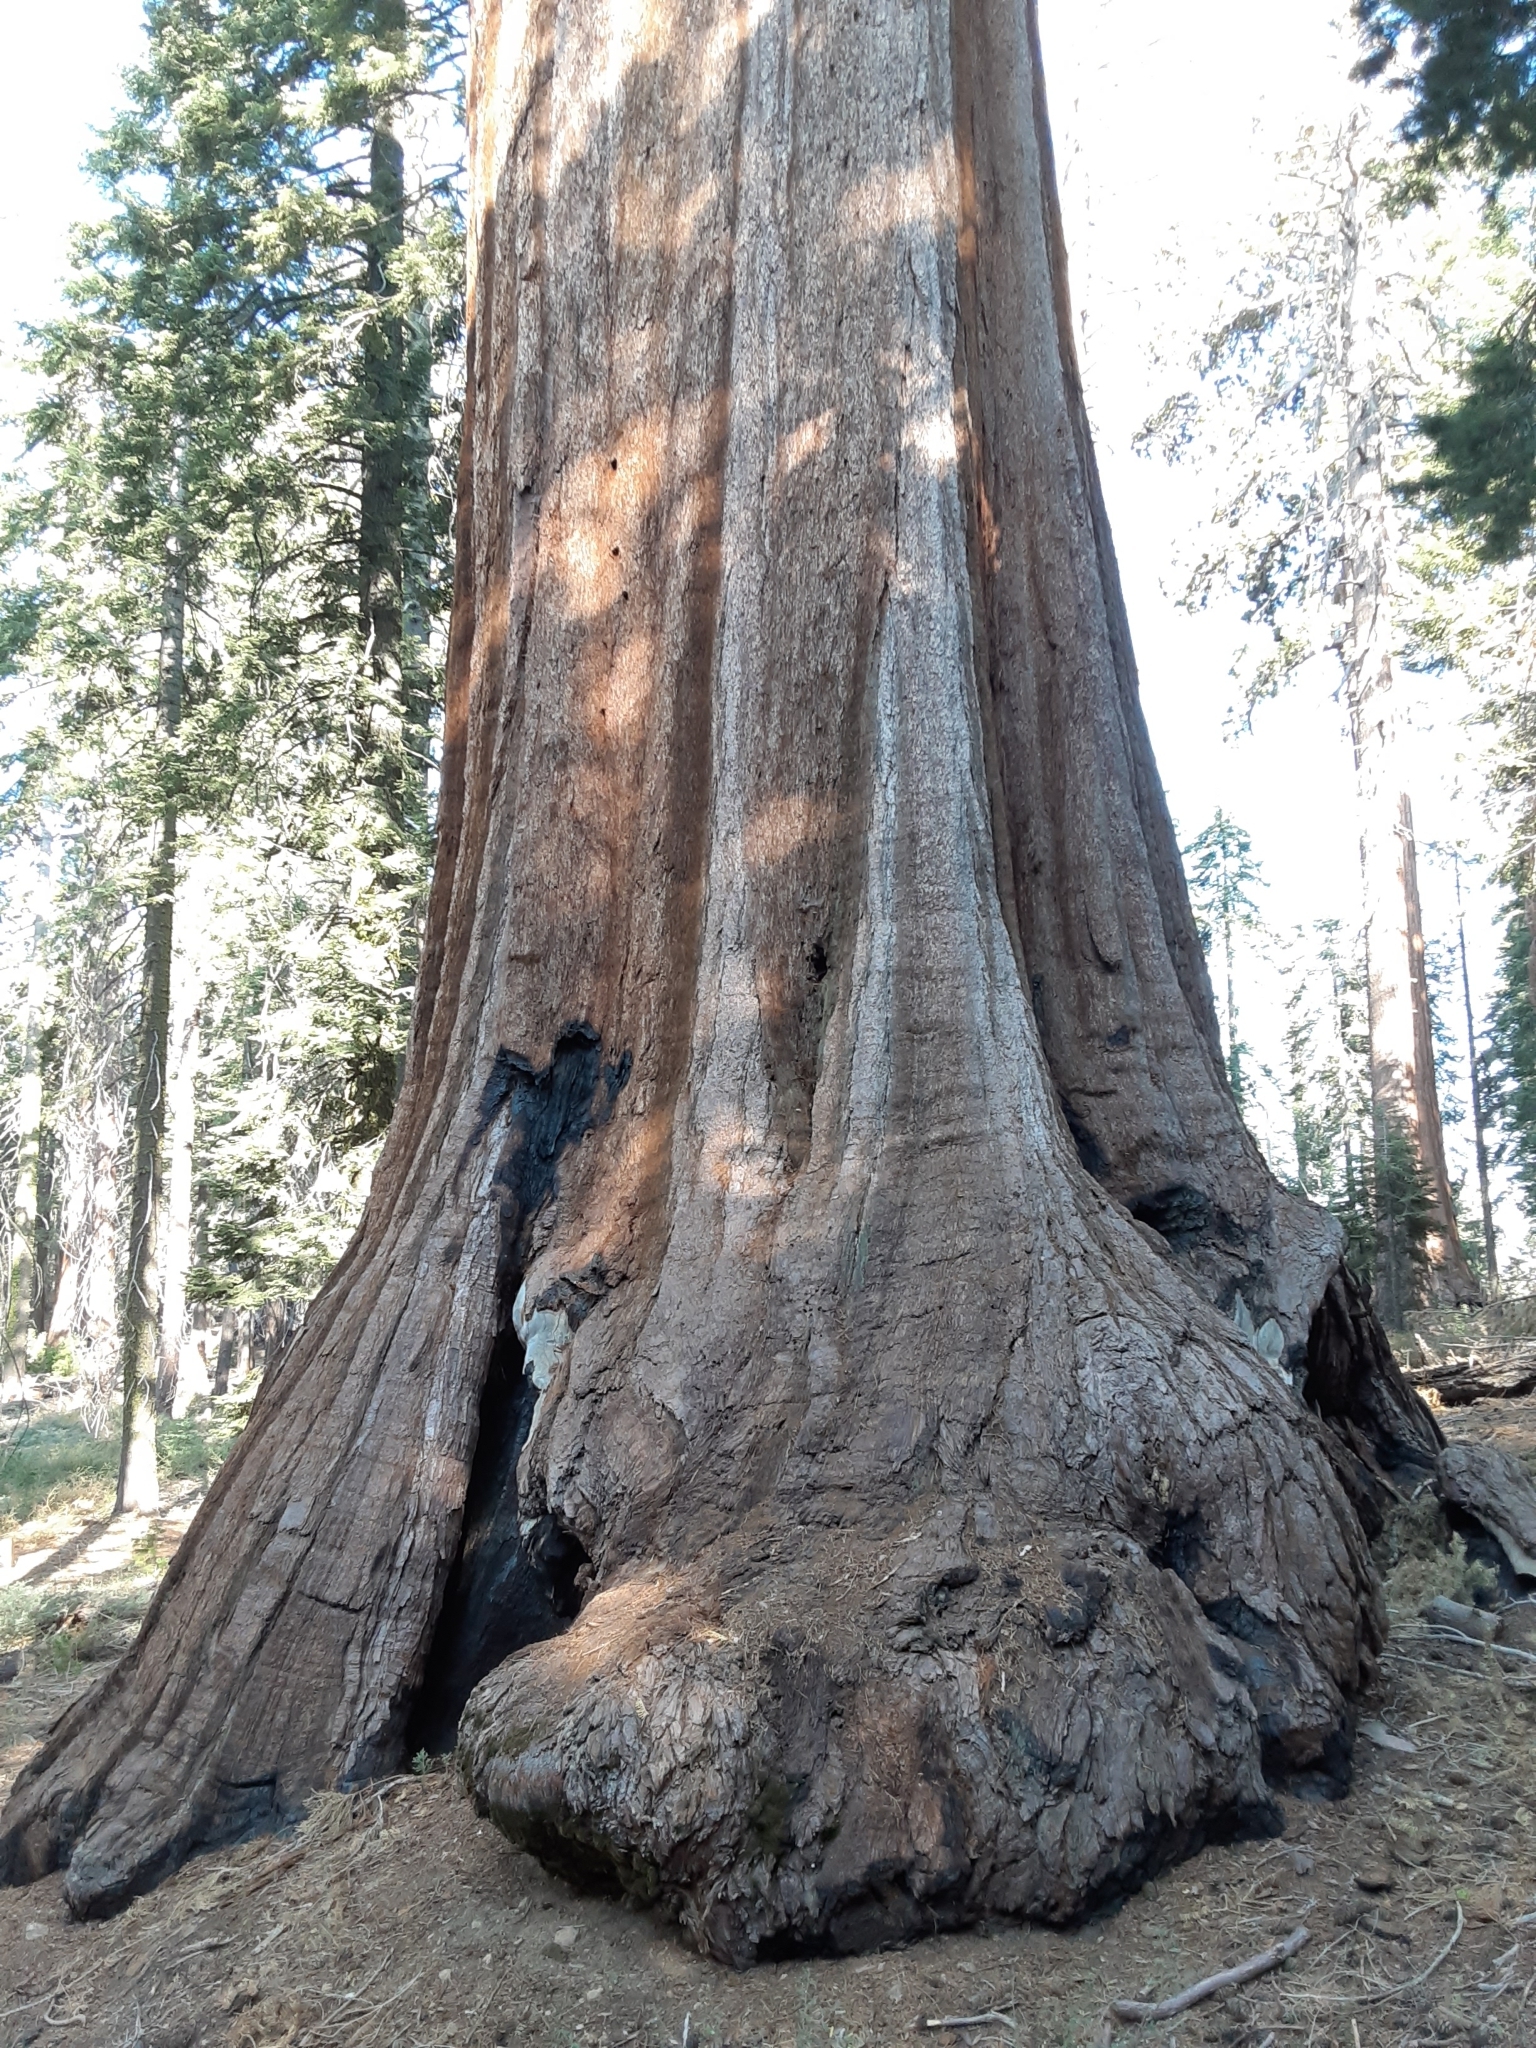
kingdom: Plantae
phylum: Tracheophyta
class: Pinopsida
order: Pinales
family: Cupressaceae
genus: Sequoiadendron
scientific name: Sequoiadendron giganteum
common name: Wellingtonia
